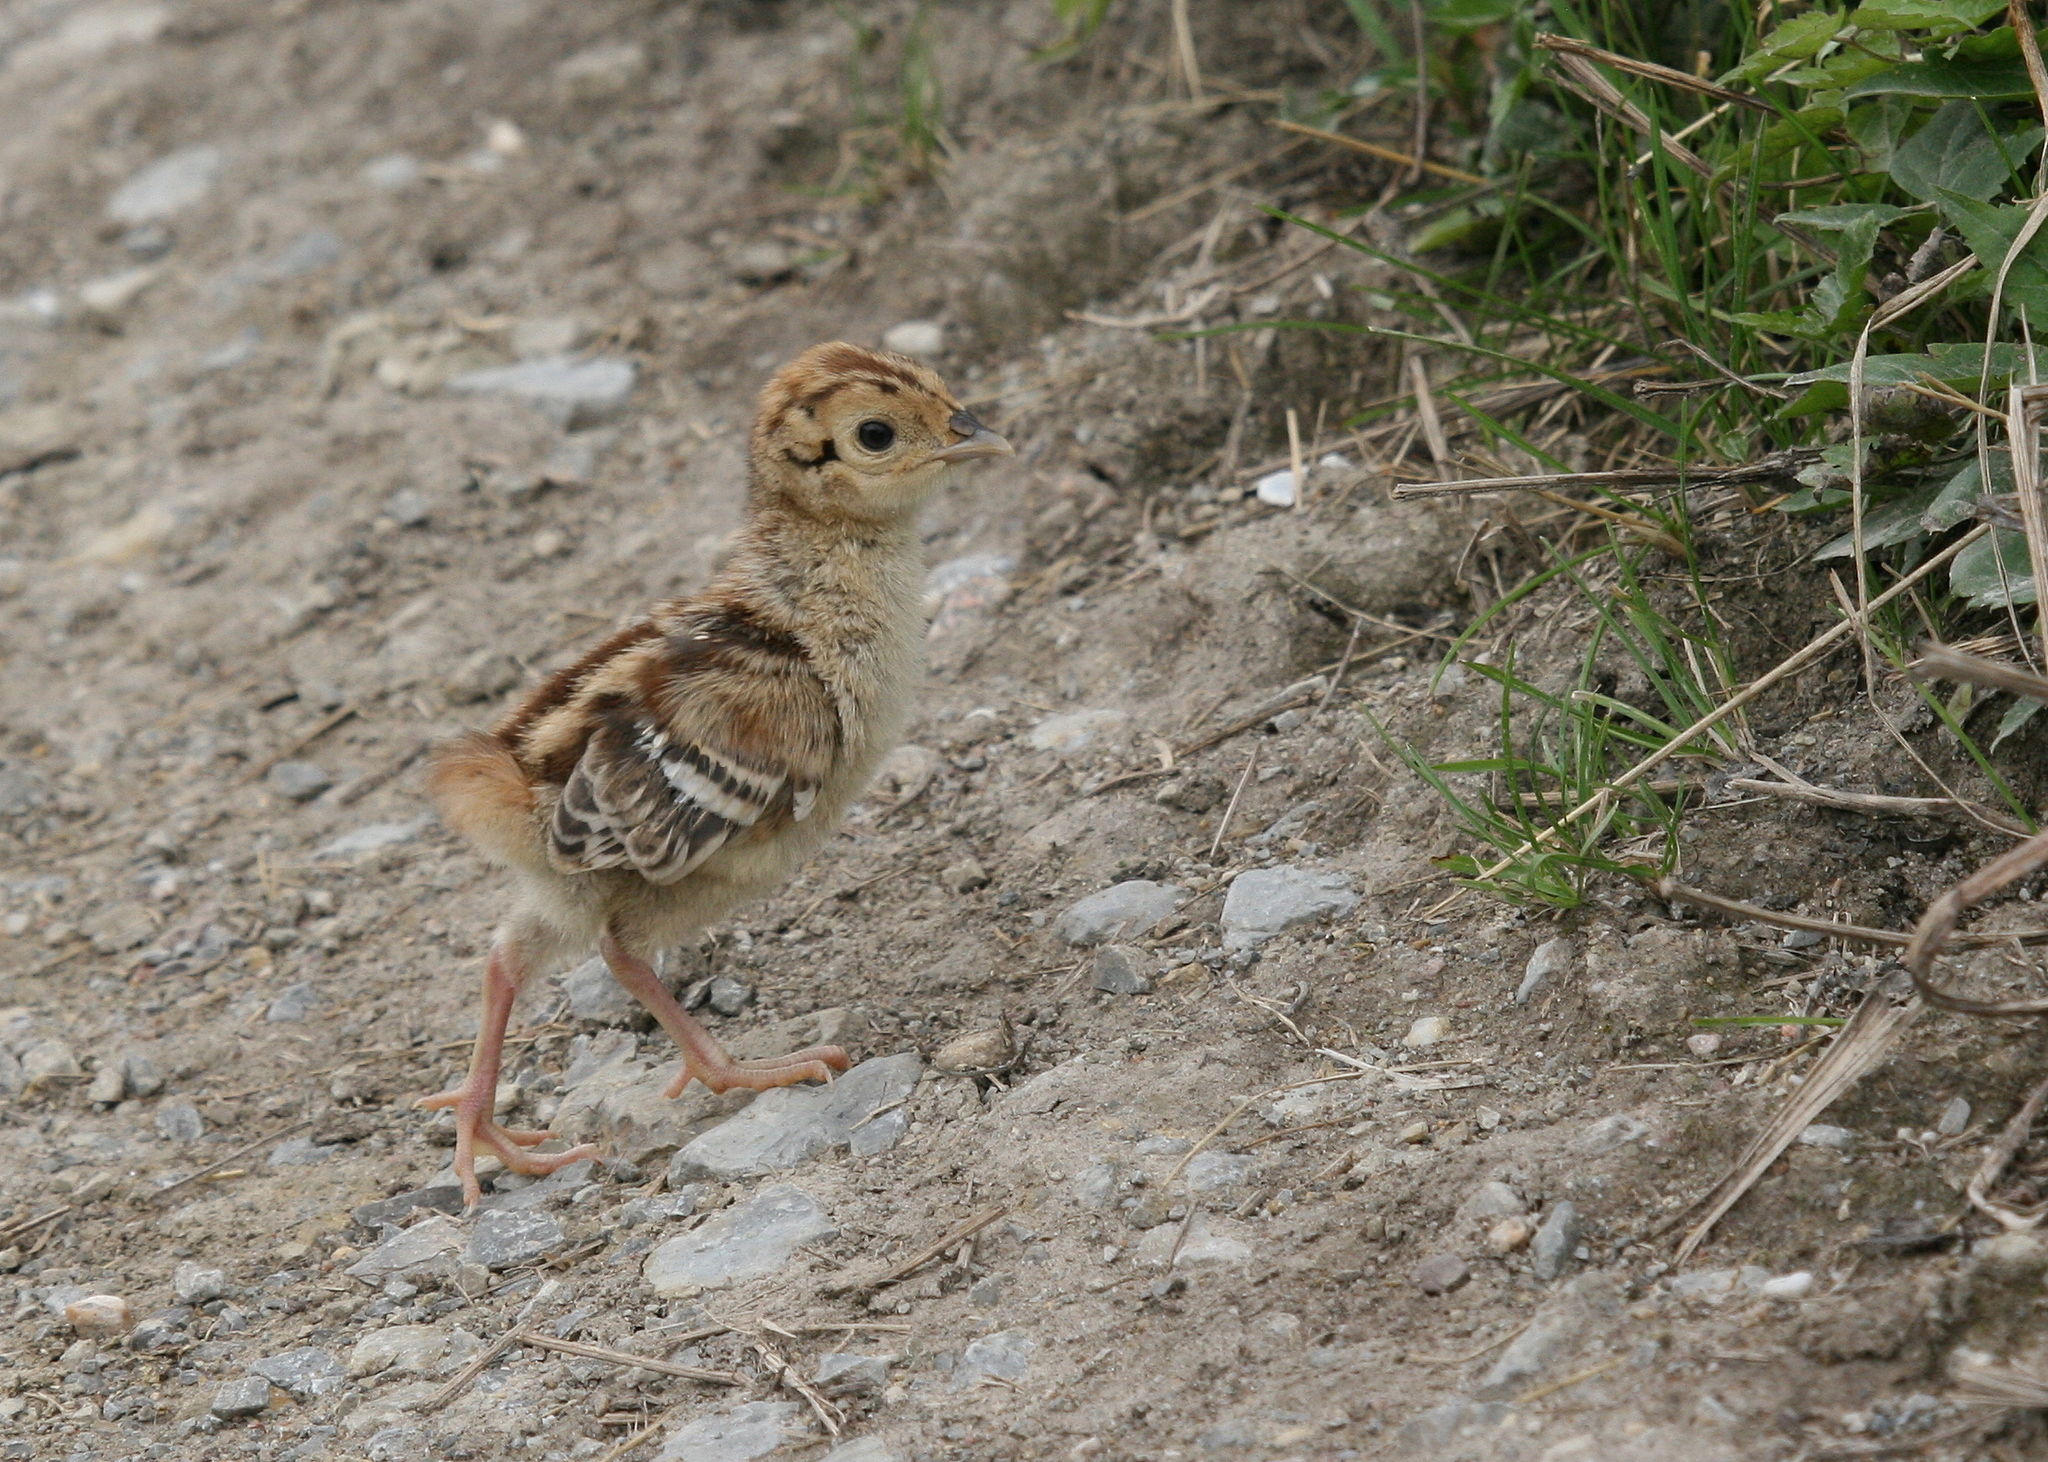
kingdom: Animalia
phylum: Chordata
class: Aves
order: Galliformes
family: Phasianidae
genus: Phasianus
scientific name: Phasianus colchicus
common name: Common pheasant
